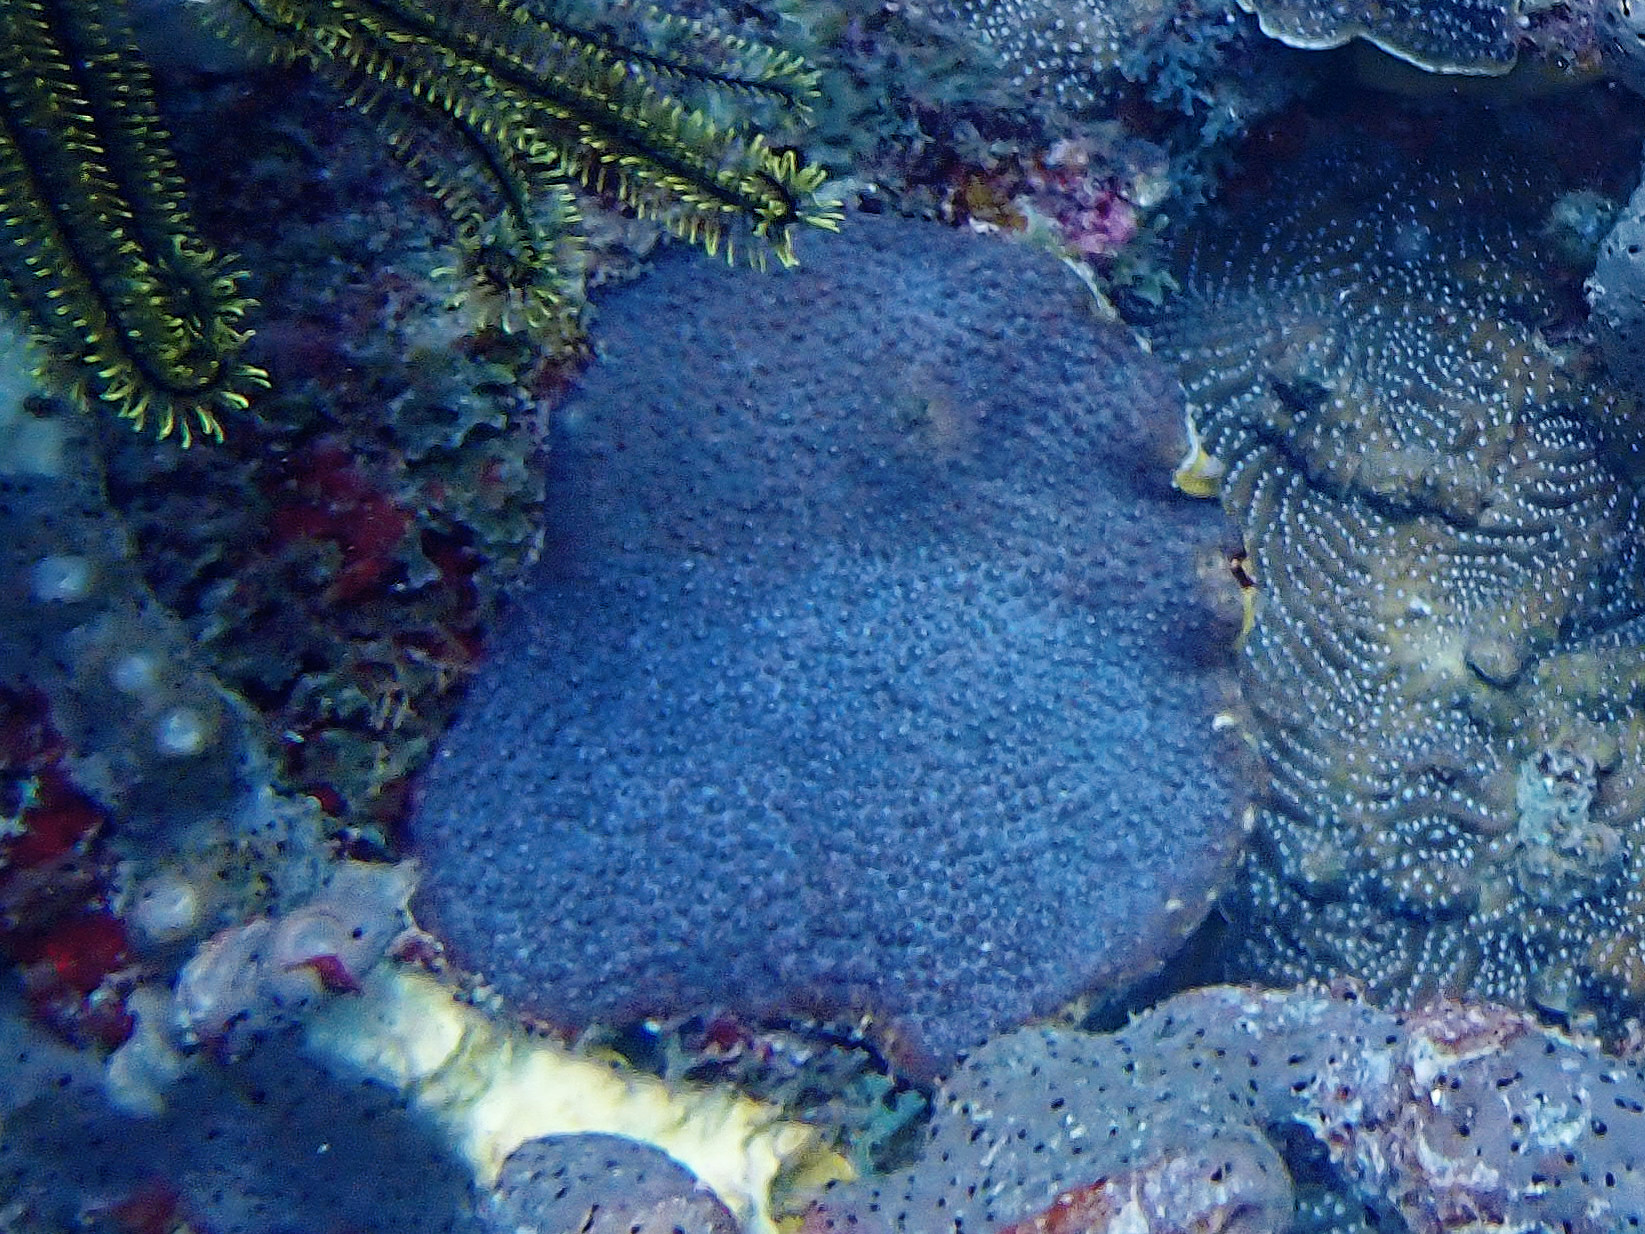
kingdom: Animalia
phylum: Cnidaria
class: Anthozoa
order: Scleractinia
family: Montastraeidae
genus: Montastraea
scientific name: Montastraea cavernosa
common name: Great star coral
